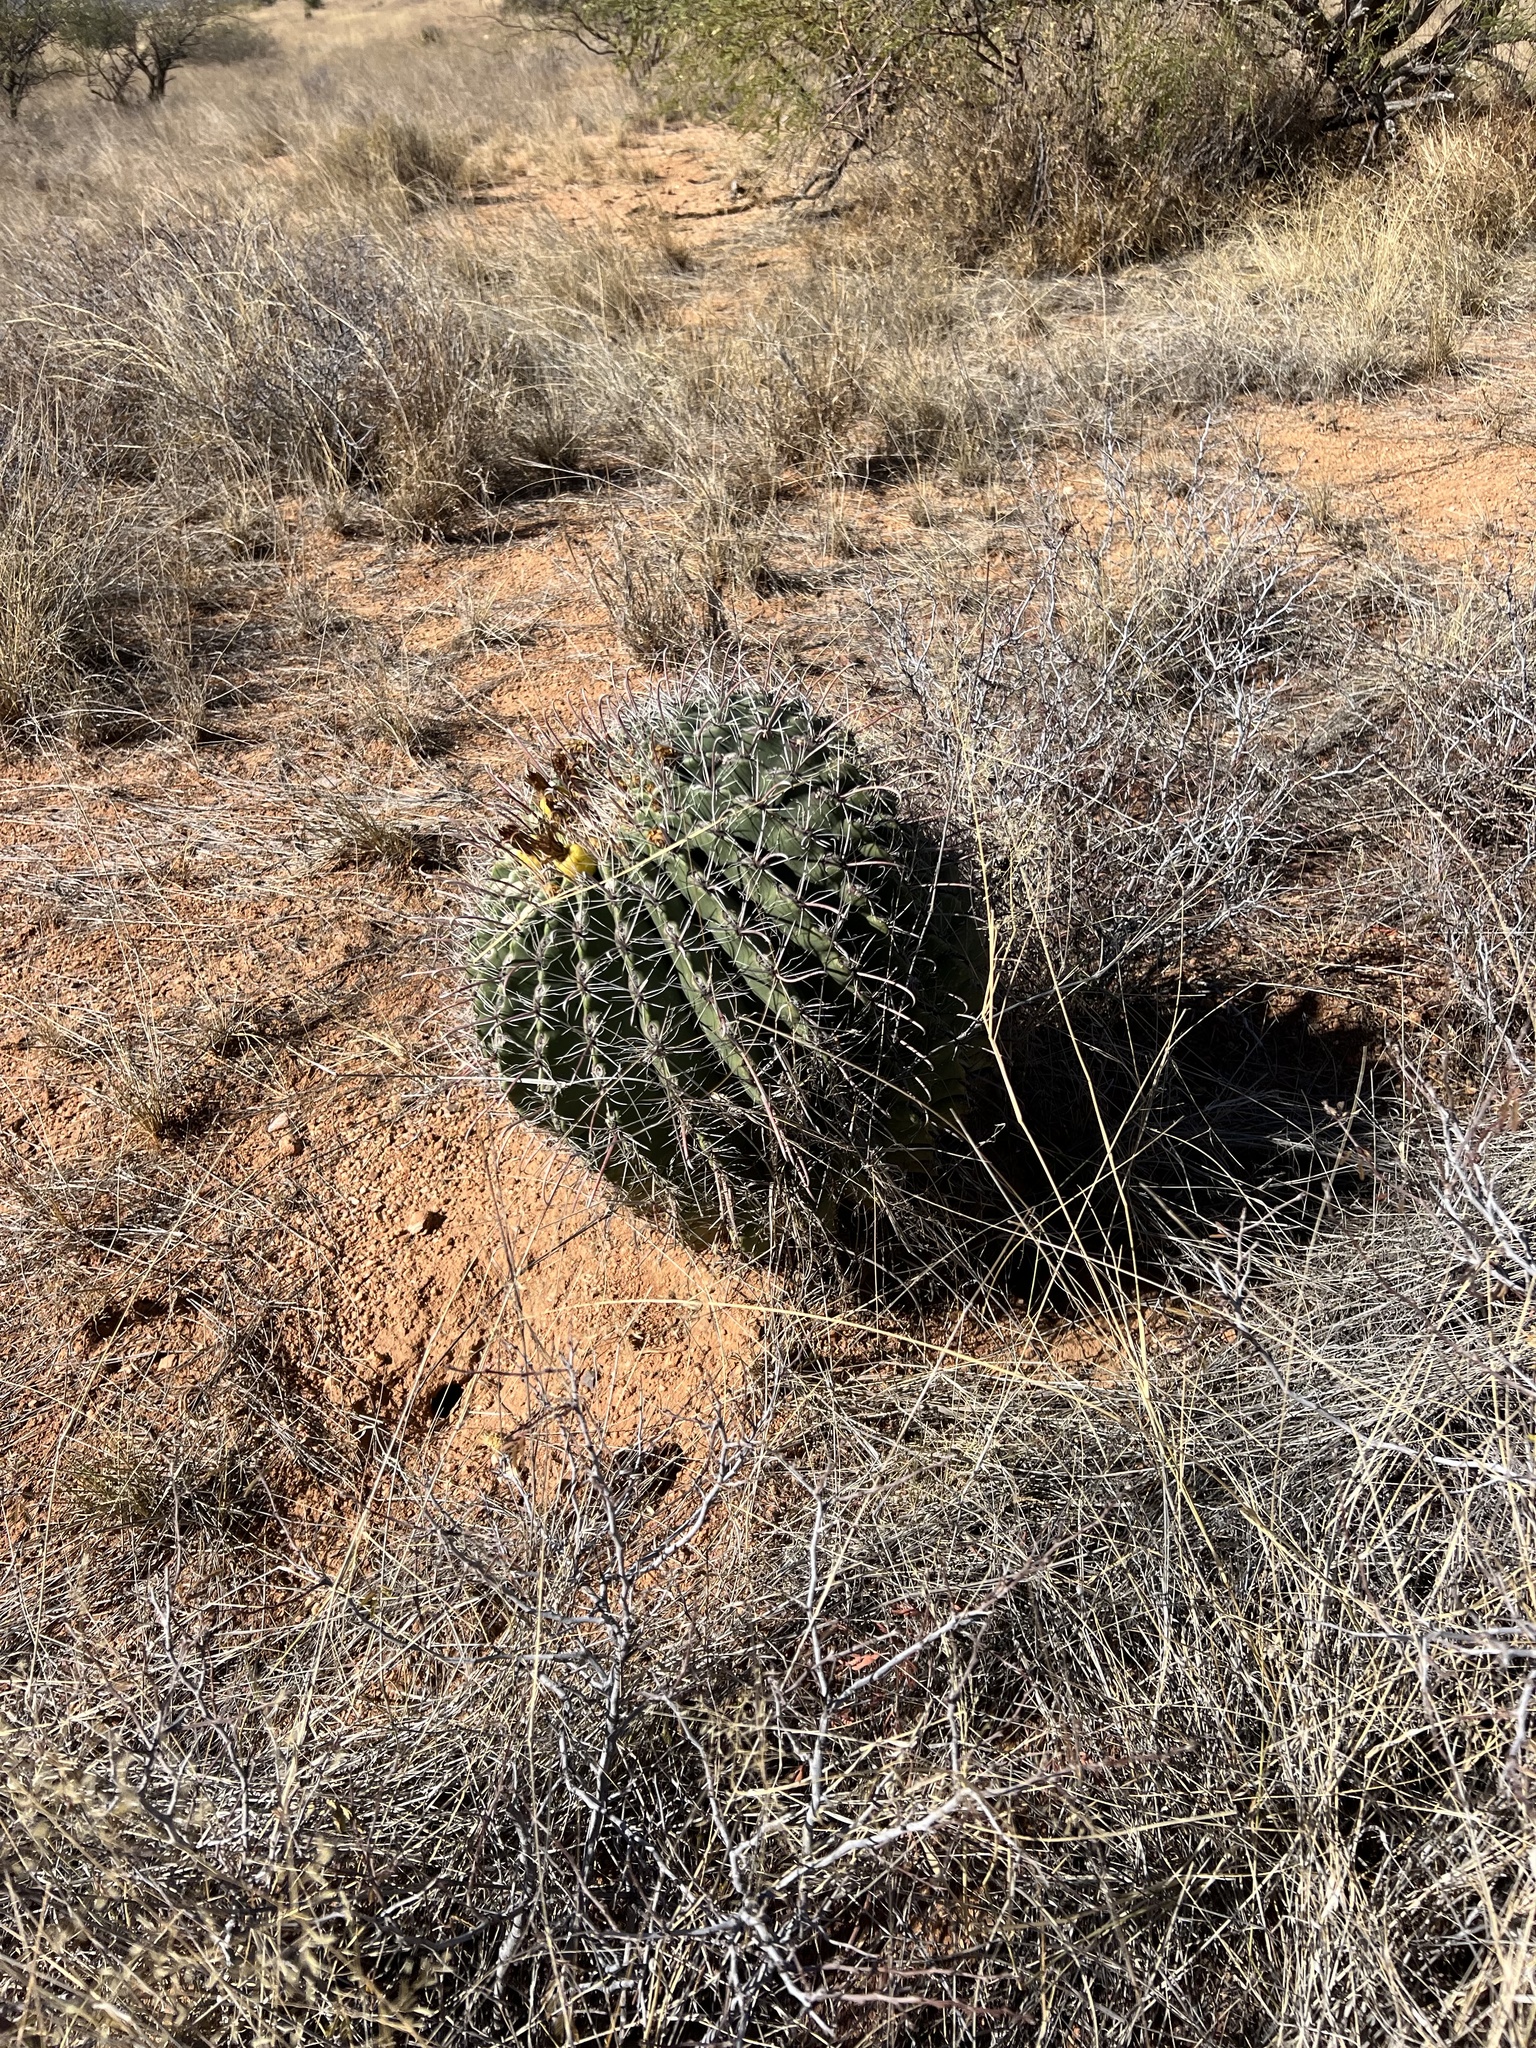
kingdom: Plantae
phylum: Tracheophyta
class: Magnoliopsida
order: Caryophyllales
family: Cactaceae
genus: Ferocactus
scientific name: Ferocactus wislizeni
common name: Candy barrel cactus
